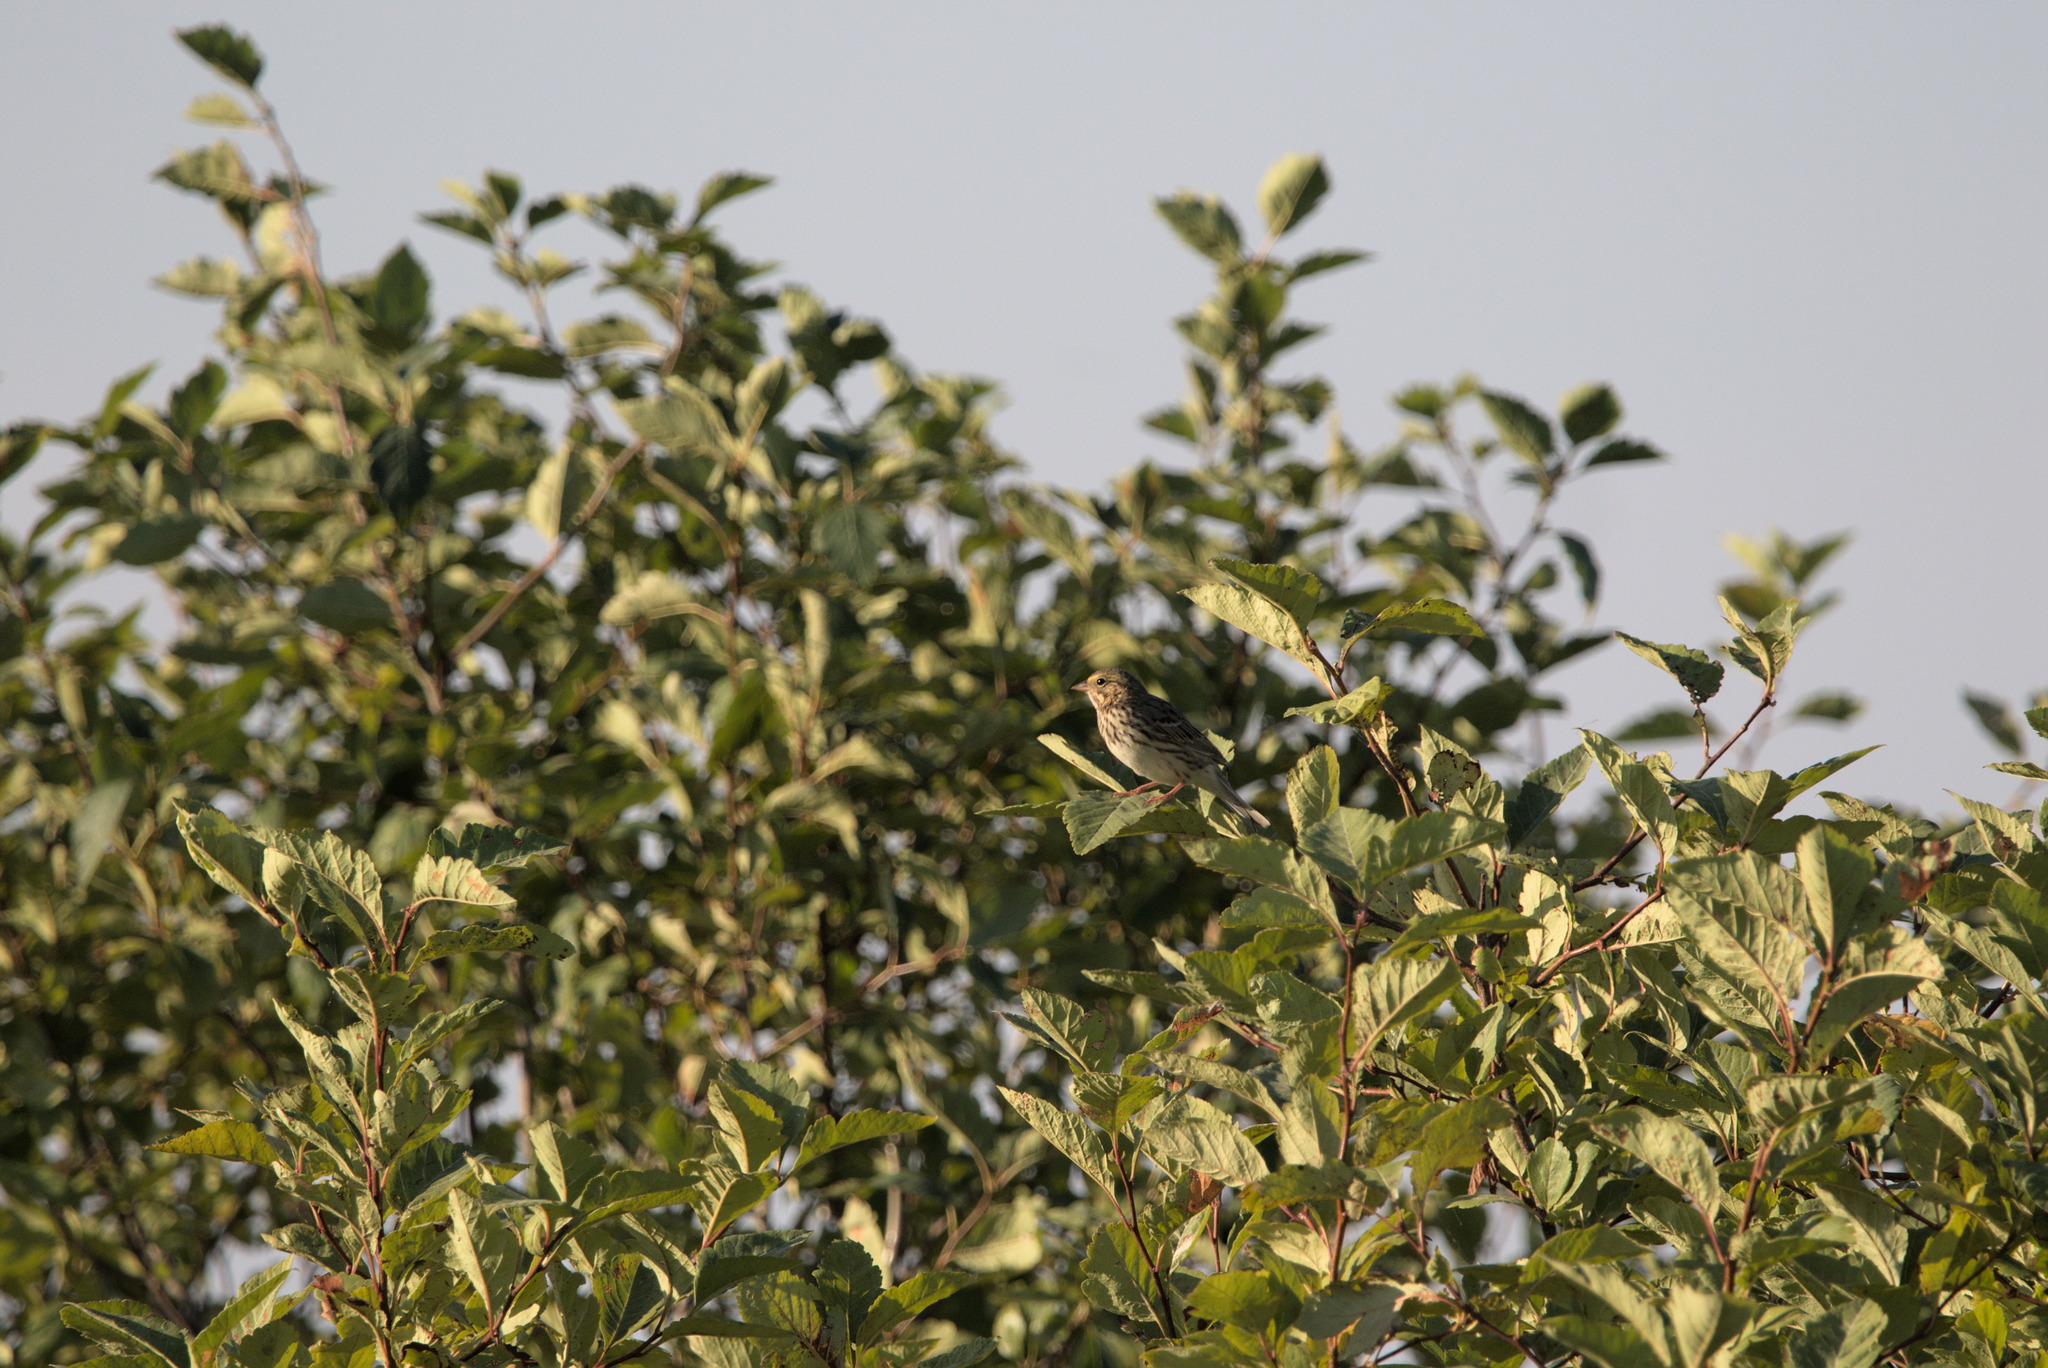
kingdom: Animalia
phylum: Chordata
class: Aves
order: Passeriformes
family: Passerellidae
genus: Passerculus
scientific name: Passerculus sandwichensis
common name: Savannah sparrow
